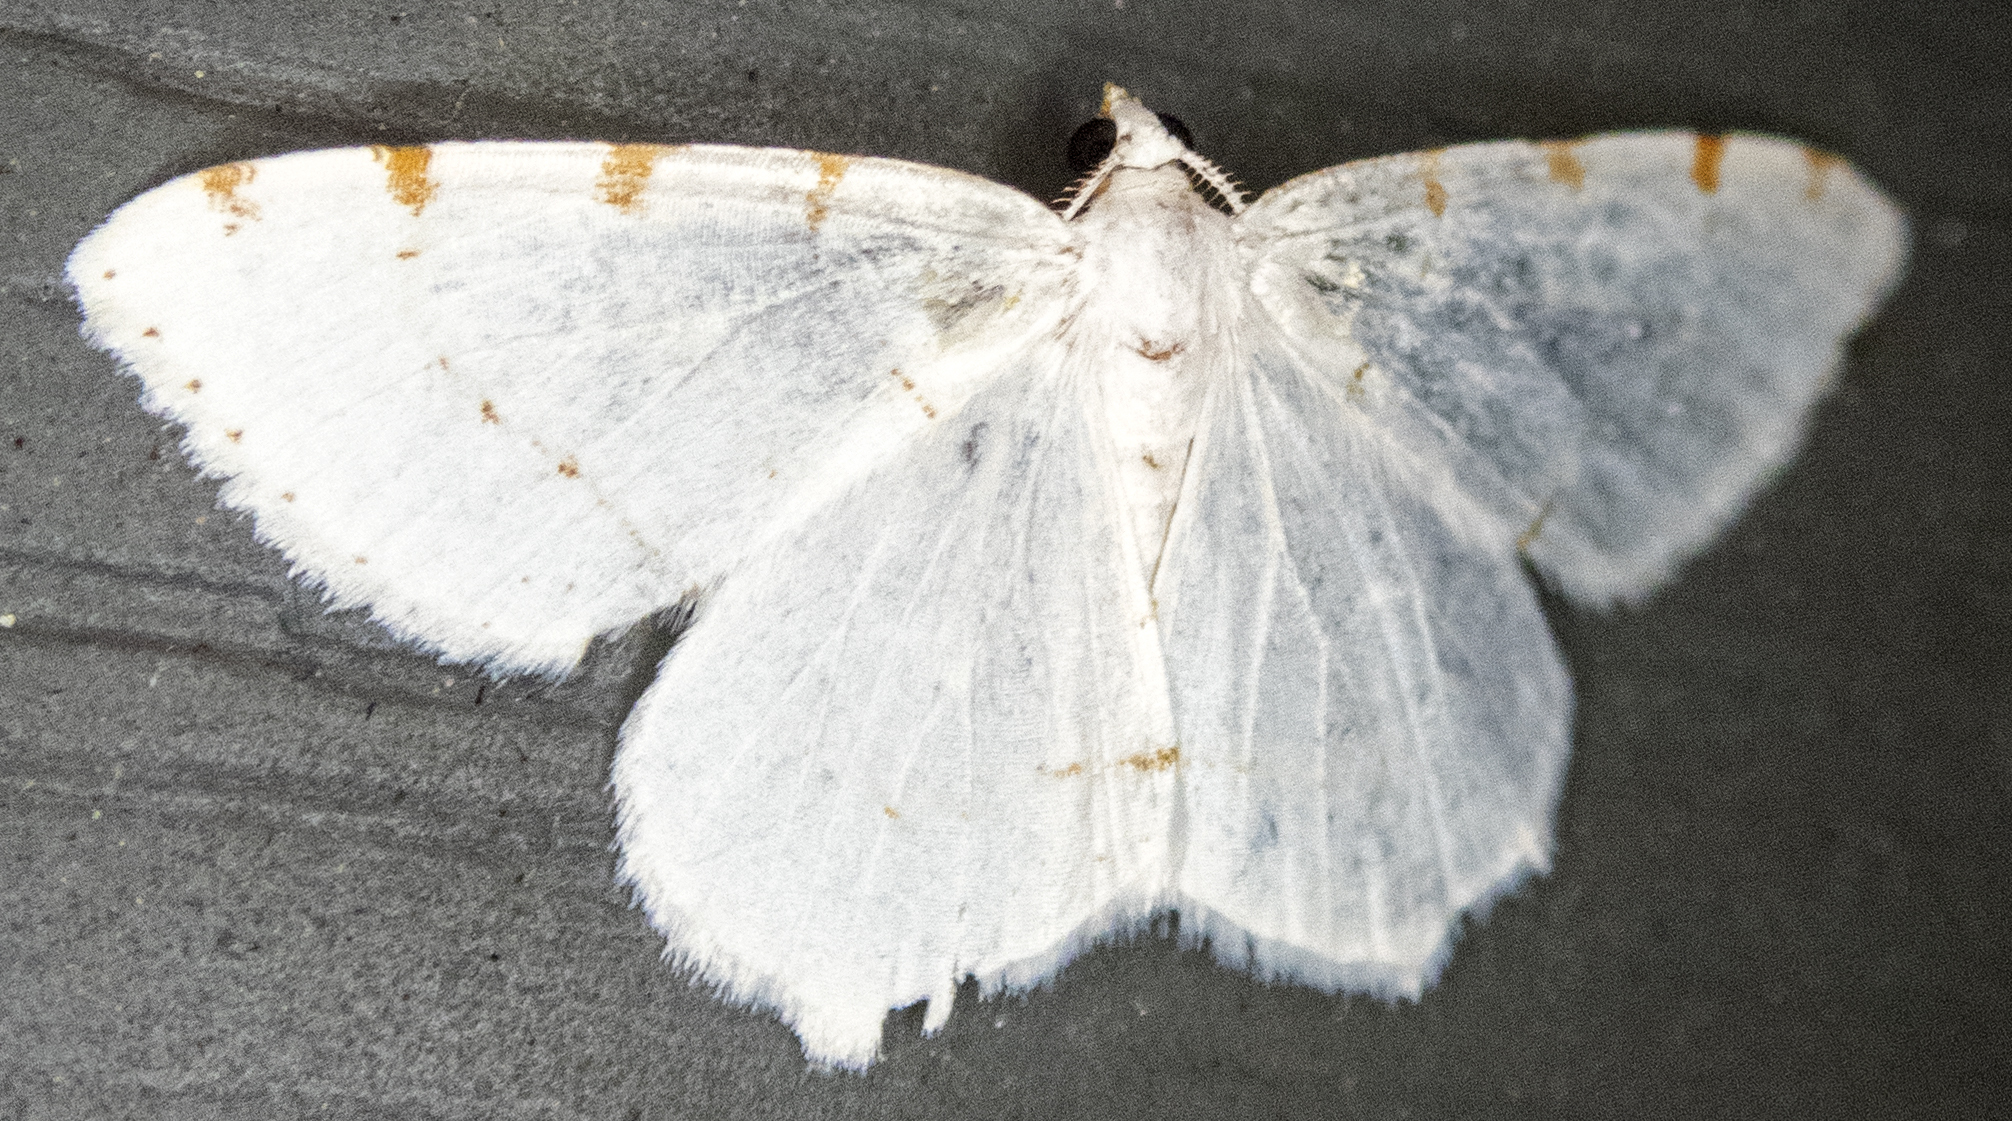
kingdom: Animalia
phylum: Arthropoda
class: Insecta
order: Lepidoptera
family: Geometridae
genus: Macaria
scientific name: Macaria pustularia
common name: Lesser maple spanworm moth
